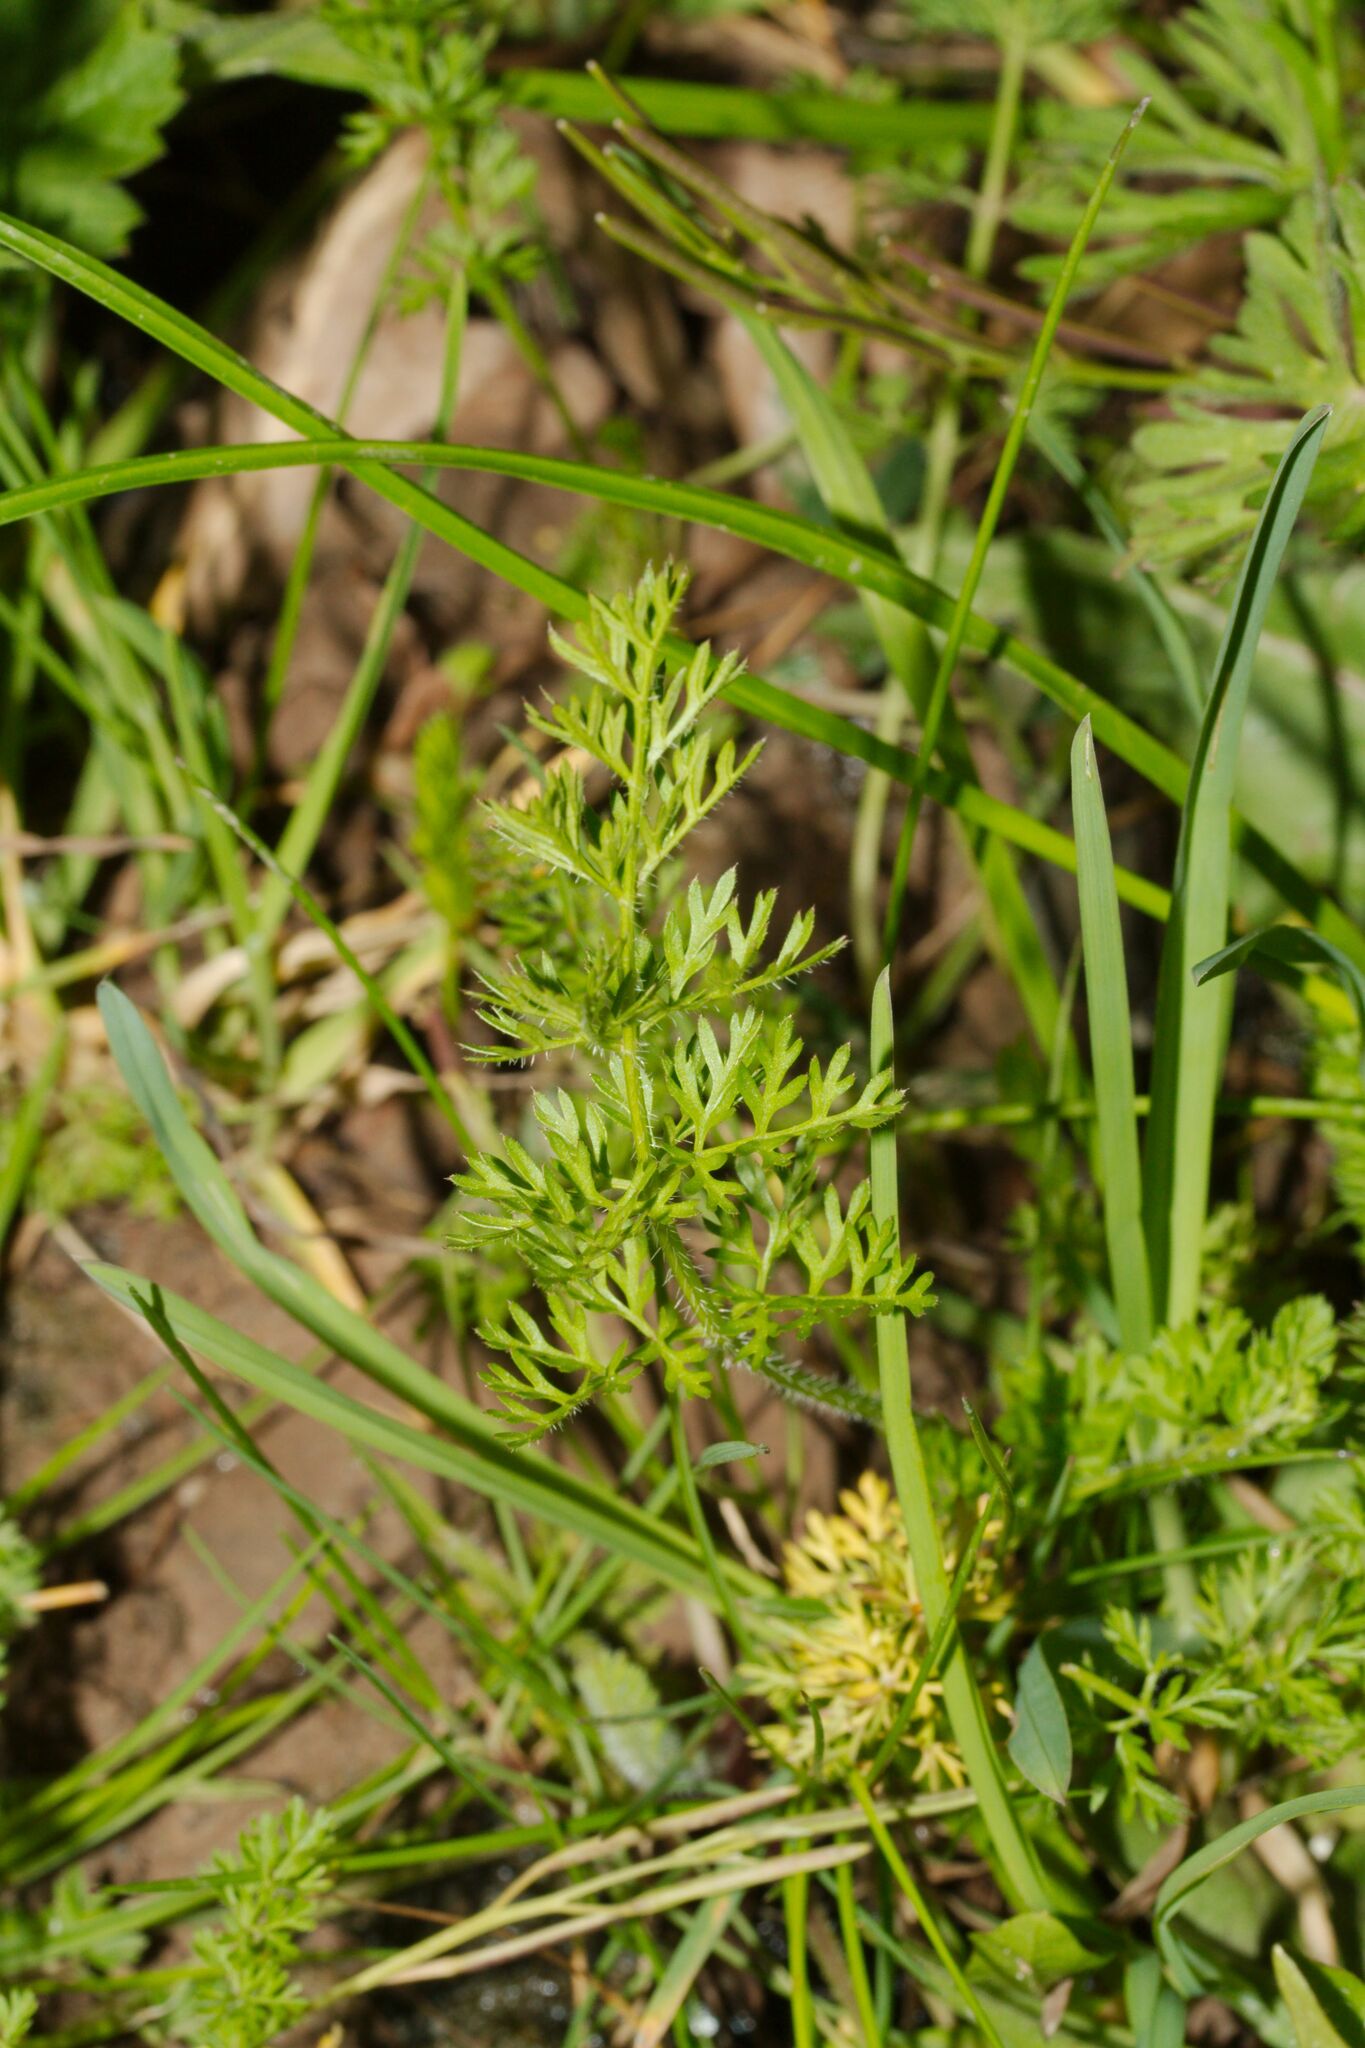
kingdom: Plantae
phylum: Tracheophyta
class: Magnoliopsida
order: Apiales
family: Apiaceae
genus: Daucus
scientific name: Daucus carota
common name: Wild carrot
